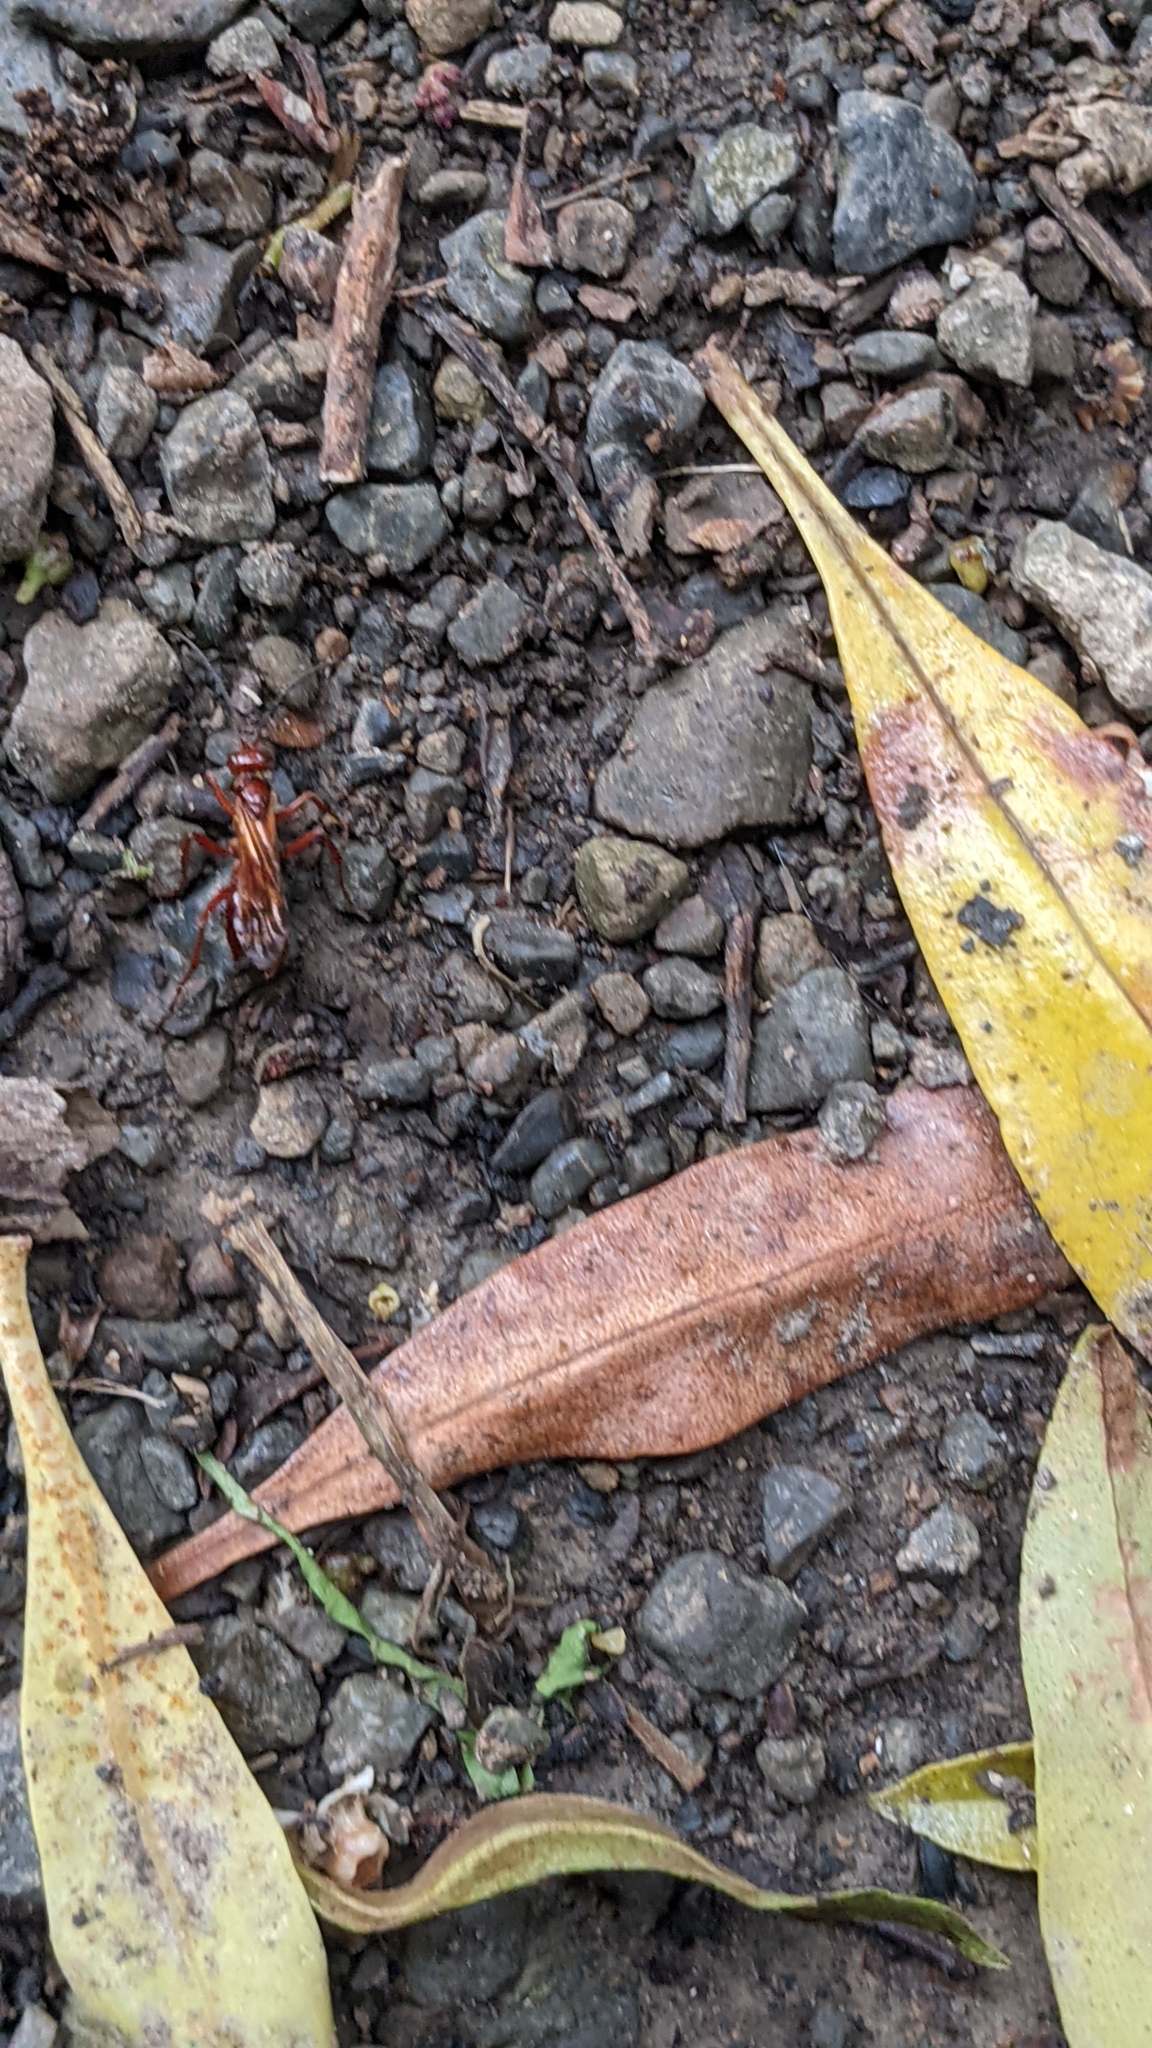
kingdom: Animalia
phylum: Arthropoda
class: Insecta
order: Hymenoptera
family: Pompilidae
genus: Sphictostethus
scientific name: Sphictostethus nitidus
